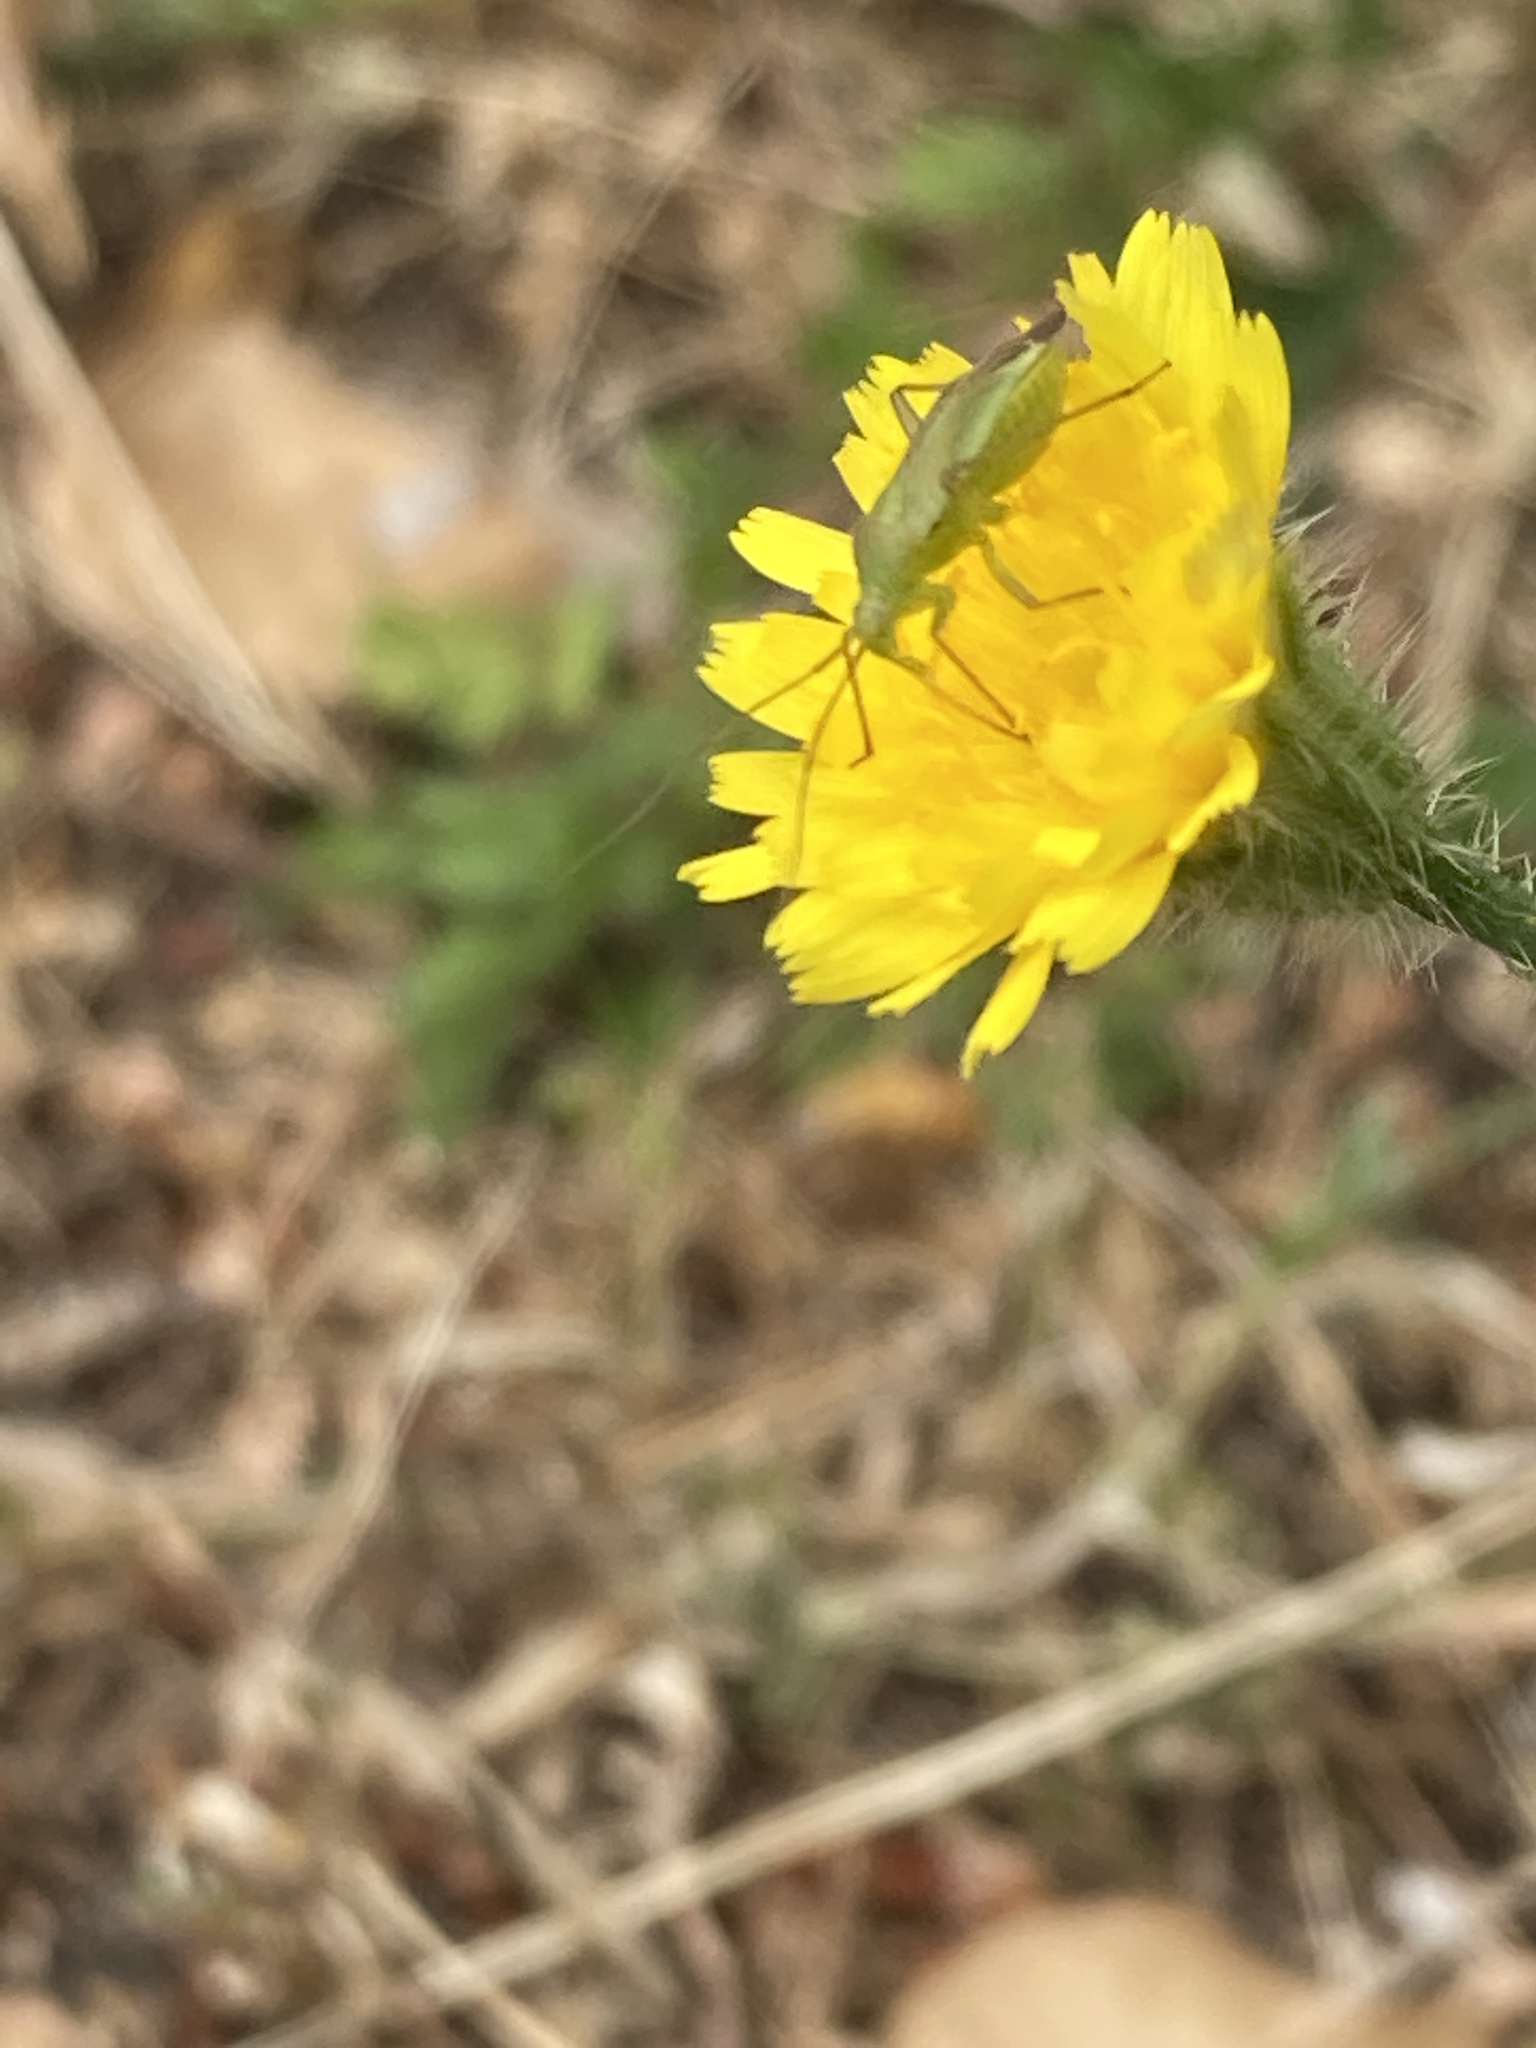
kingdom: Animalia
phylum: Arthropoda
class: Insecta
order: Hemiptera
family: Miridae
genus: Closterotomus
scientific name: Closterotomus norvegicus
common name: Plant bug
